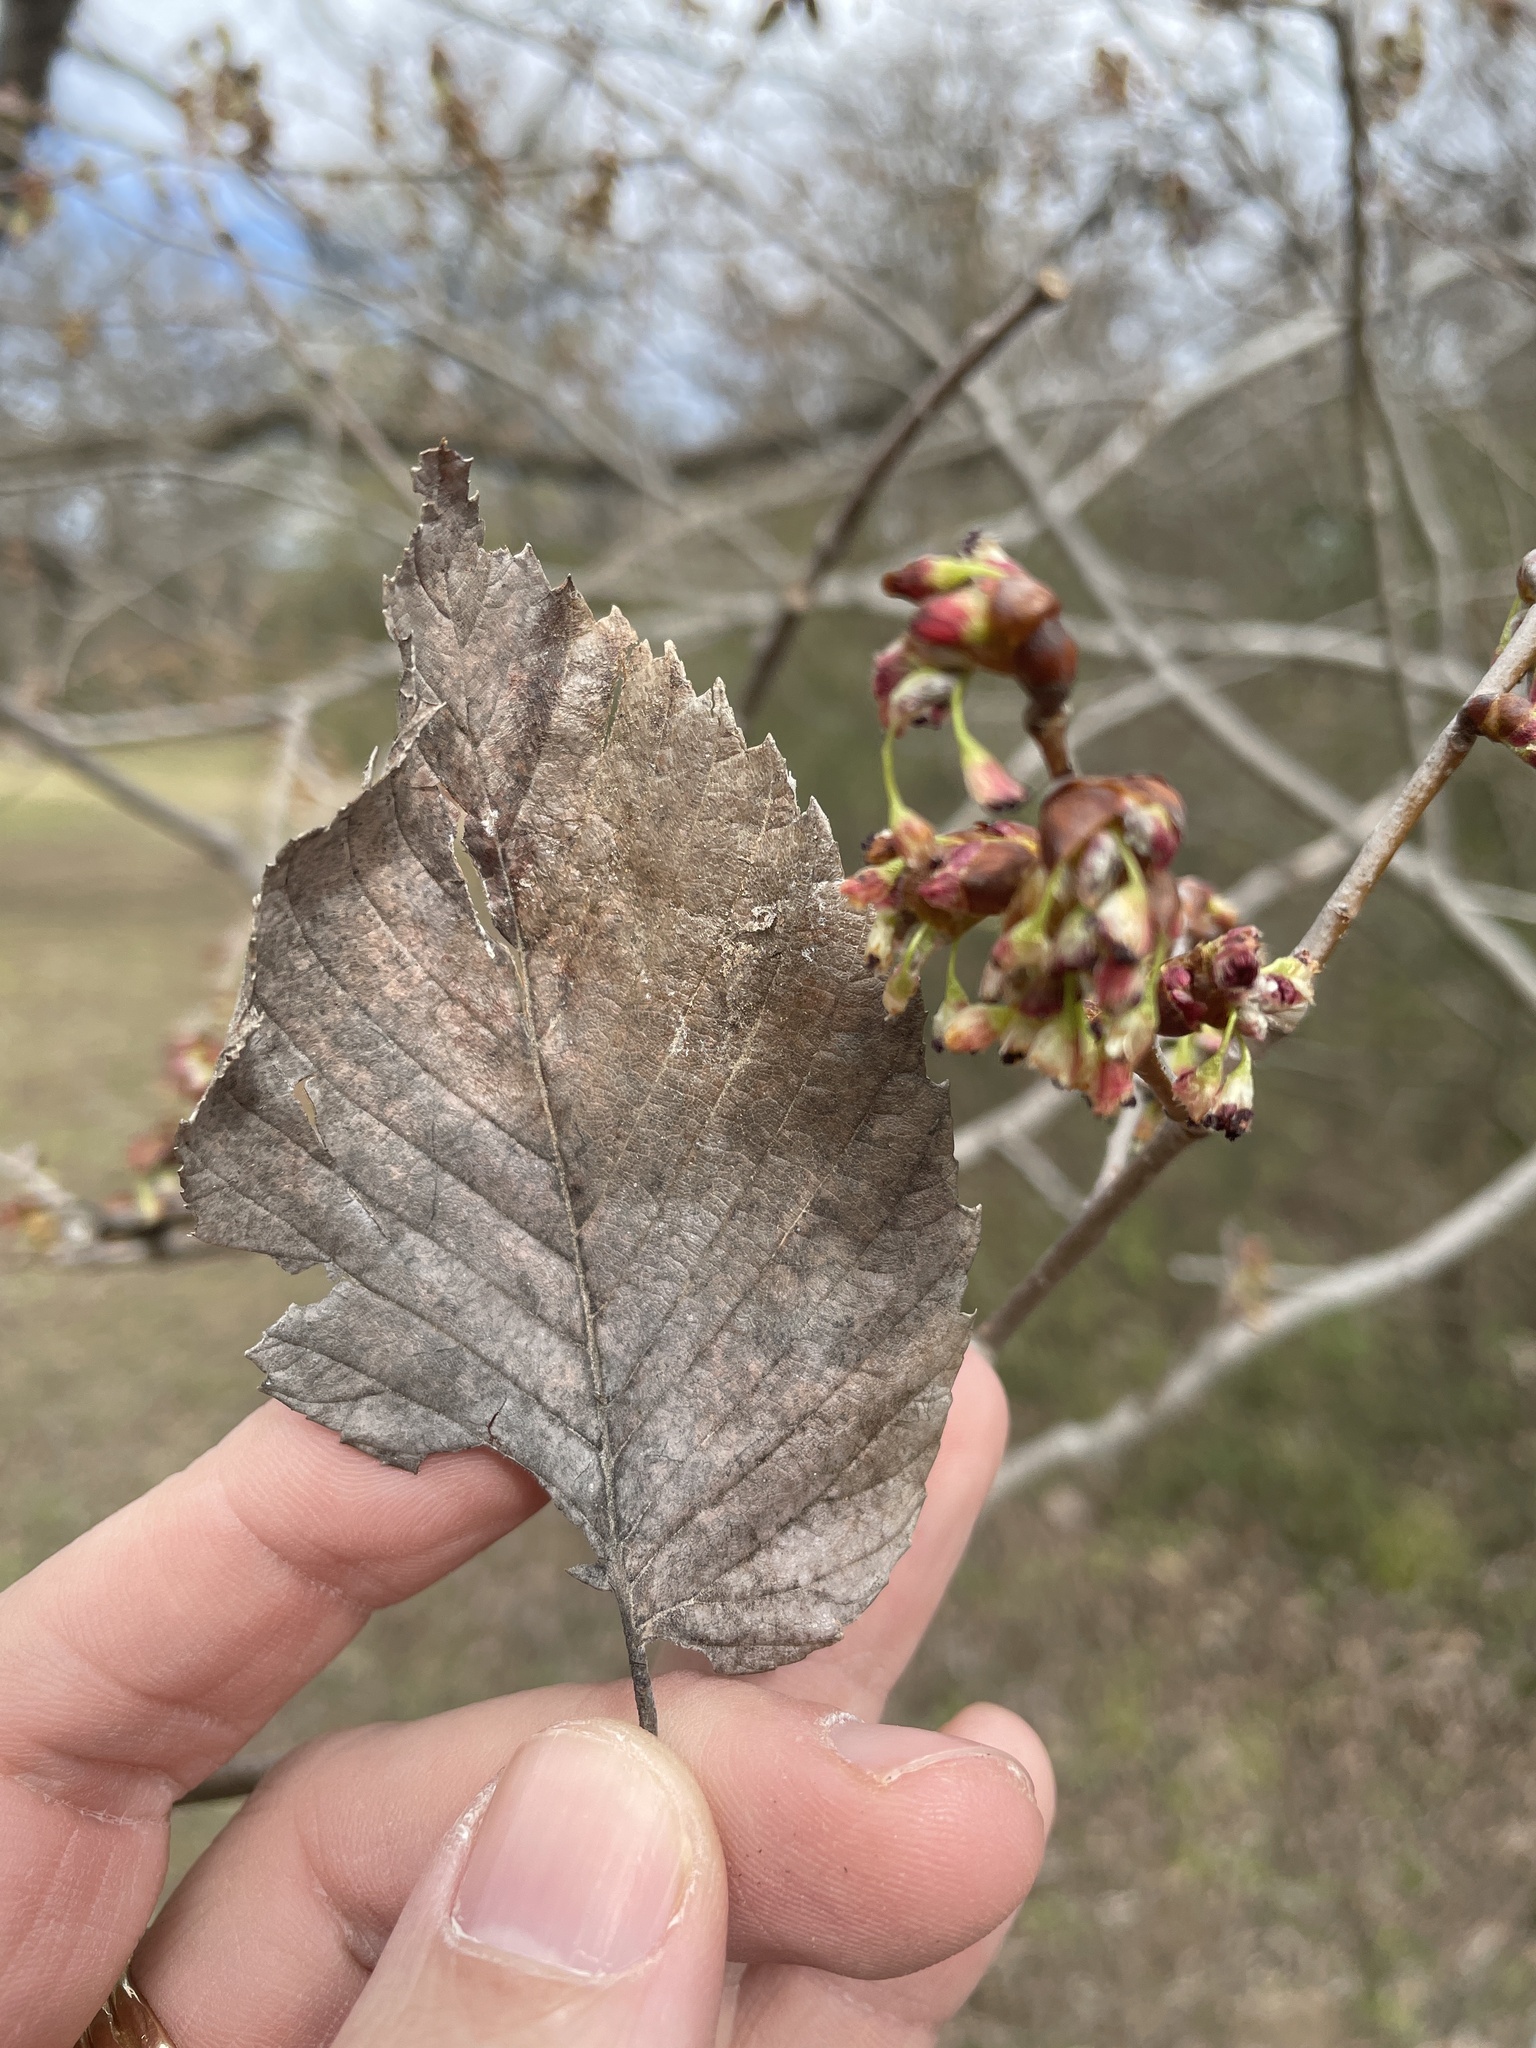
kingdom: Plantae
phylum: Tracheophyta
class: Magnoliopsida
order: Rosales
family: Ulmaceae
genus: Ulmus
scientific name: Ulmus americana
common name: American elm
